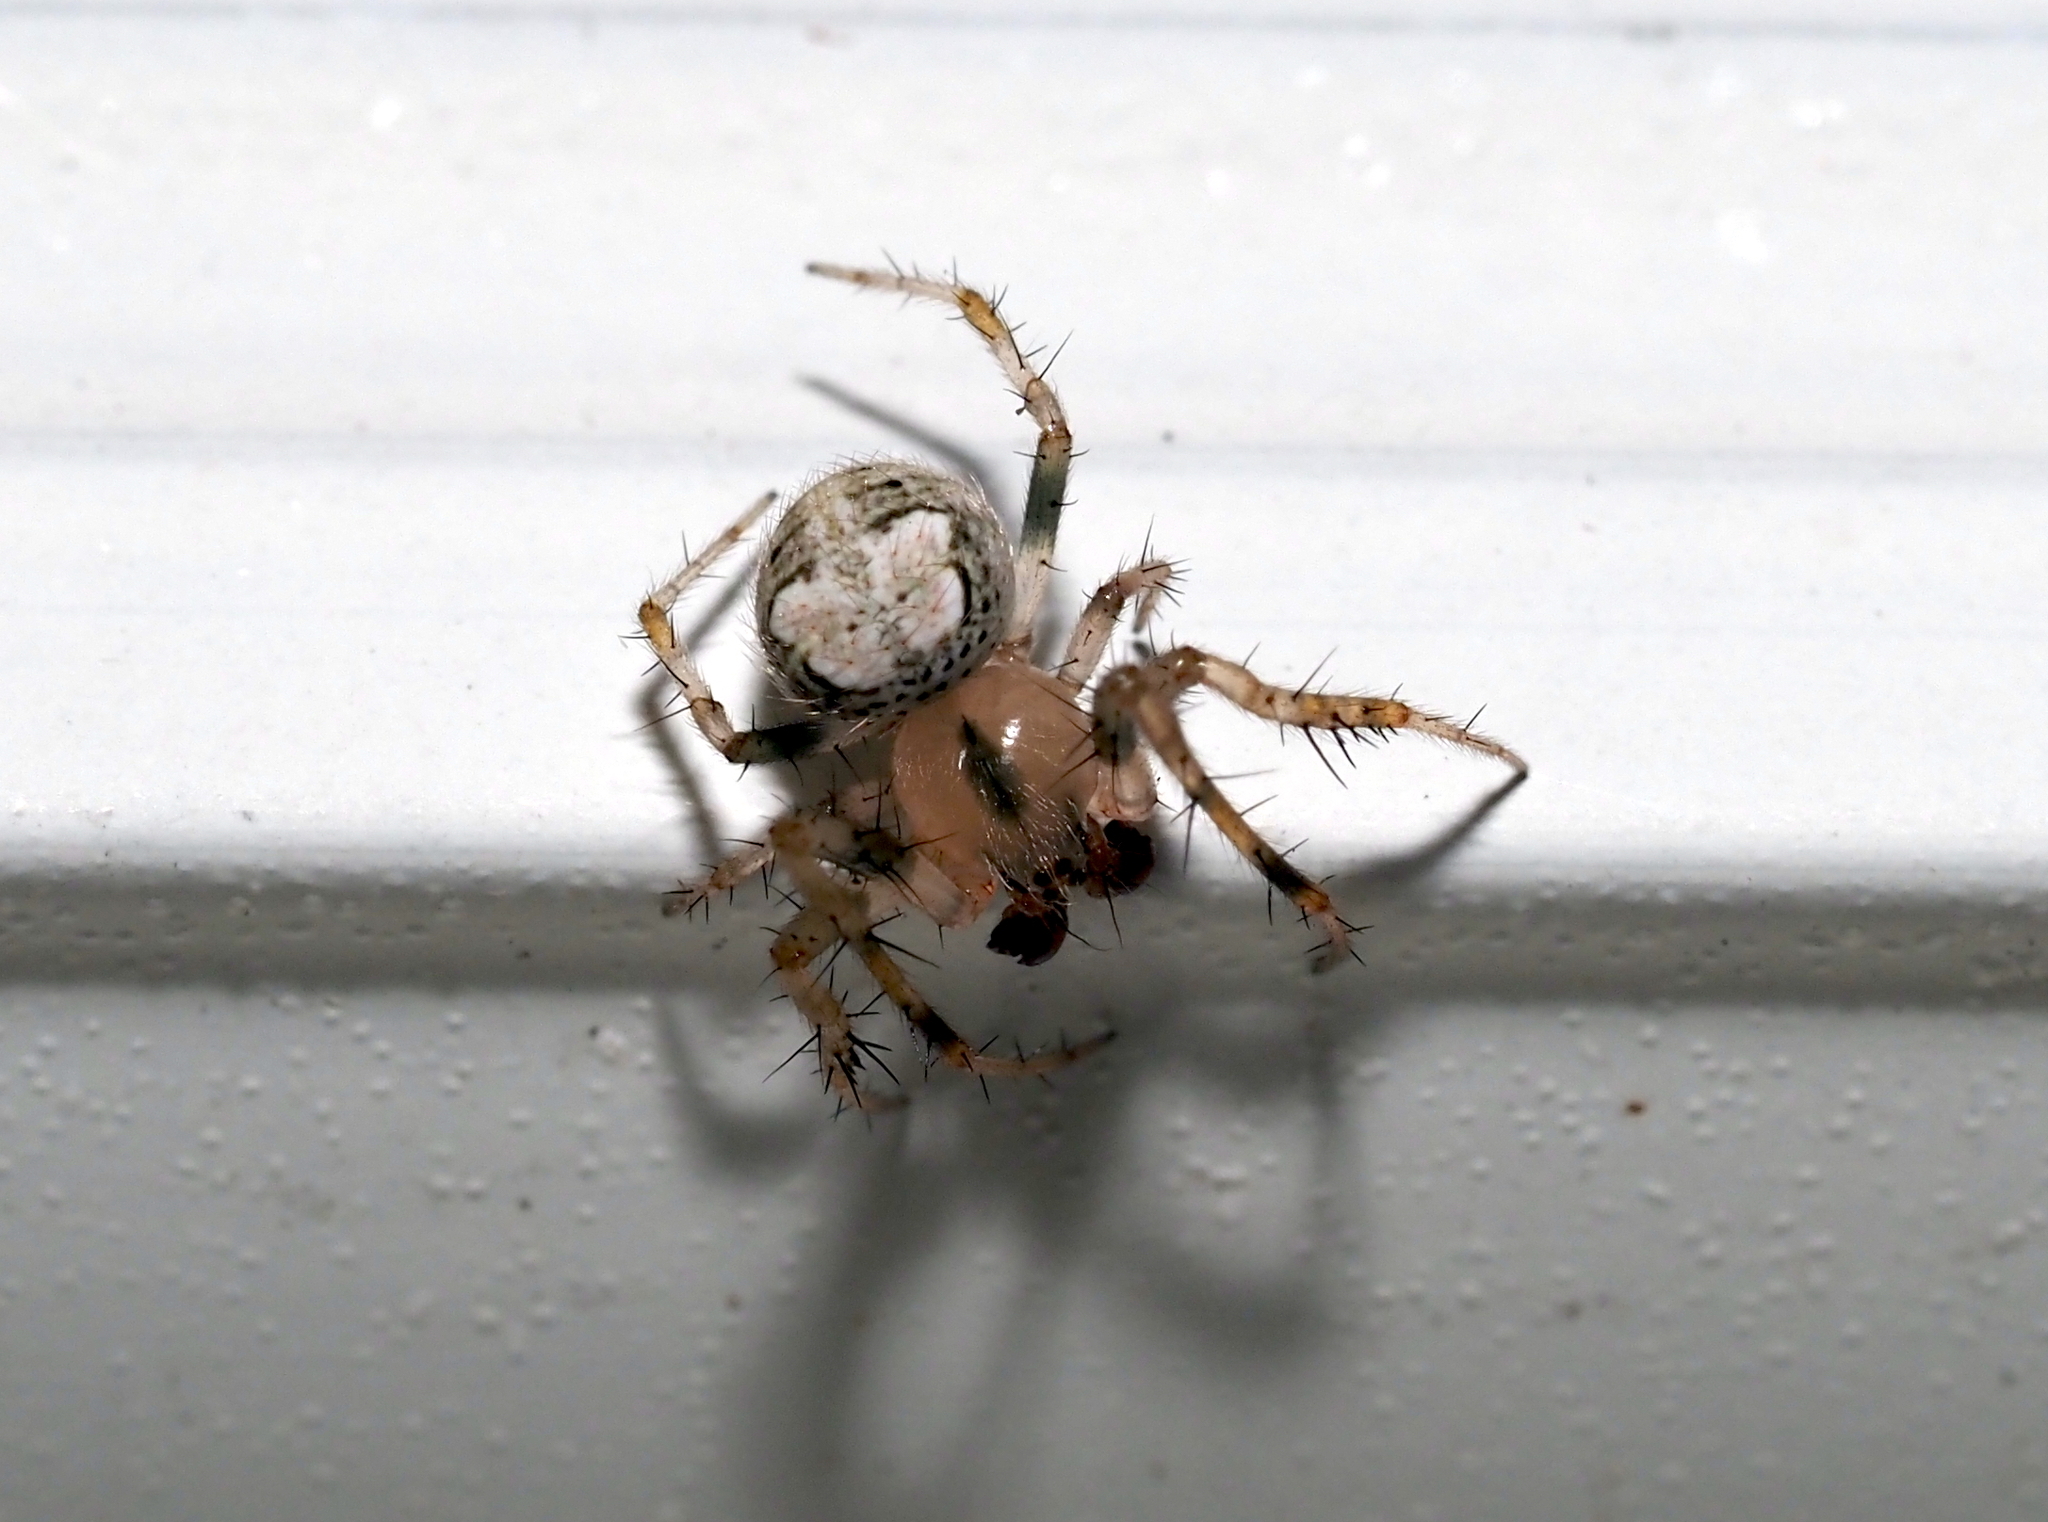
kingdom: Animalia
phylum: Arthropoda
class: Arachnida
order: Araneae
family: Araneidae
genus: Araneus
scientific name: Araneus pegnia
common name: Orb weavers
